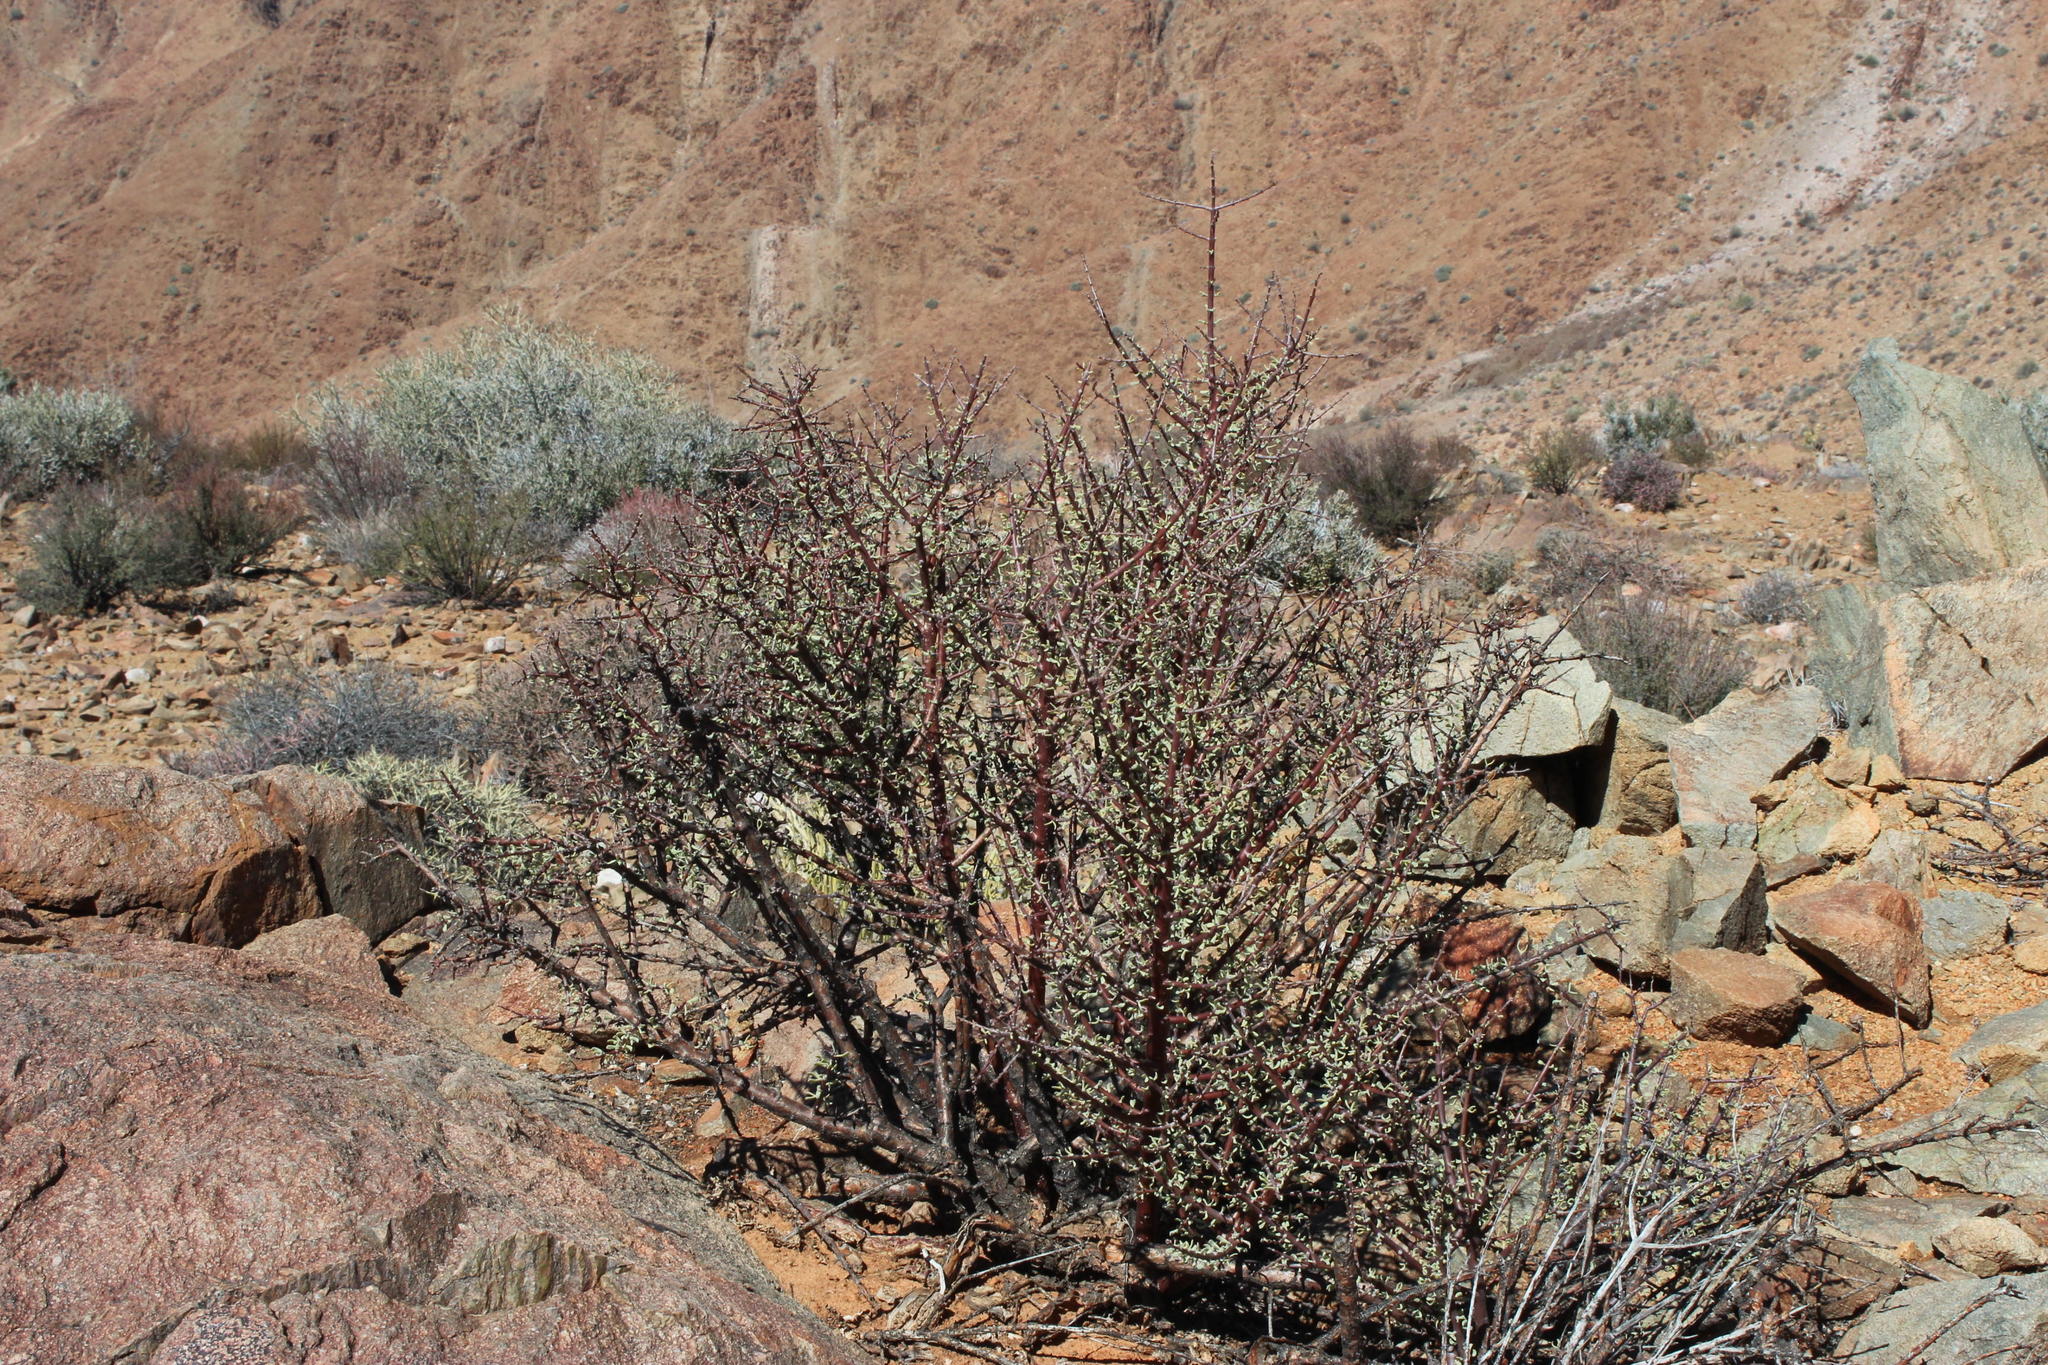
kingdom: Plantae
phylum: Tracheophyta
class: Magnoliopsida
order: Caryophyllales
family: Didiereaceae
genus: Portulacaria
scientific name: Portulacaria fruticulosa
